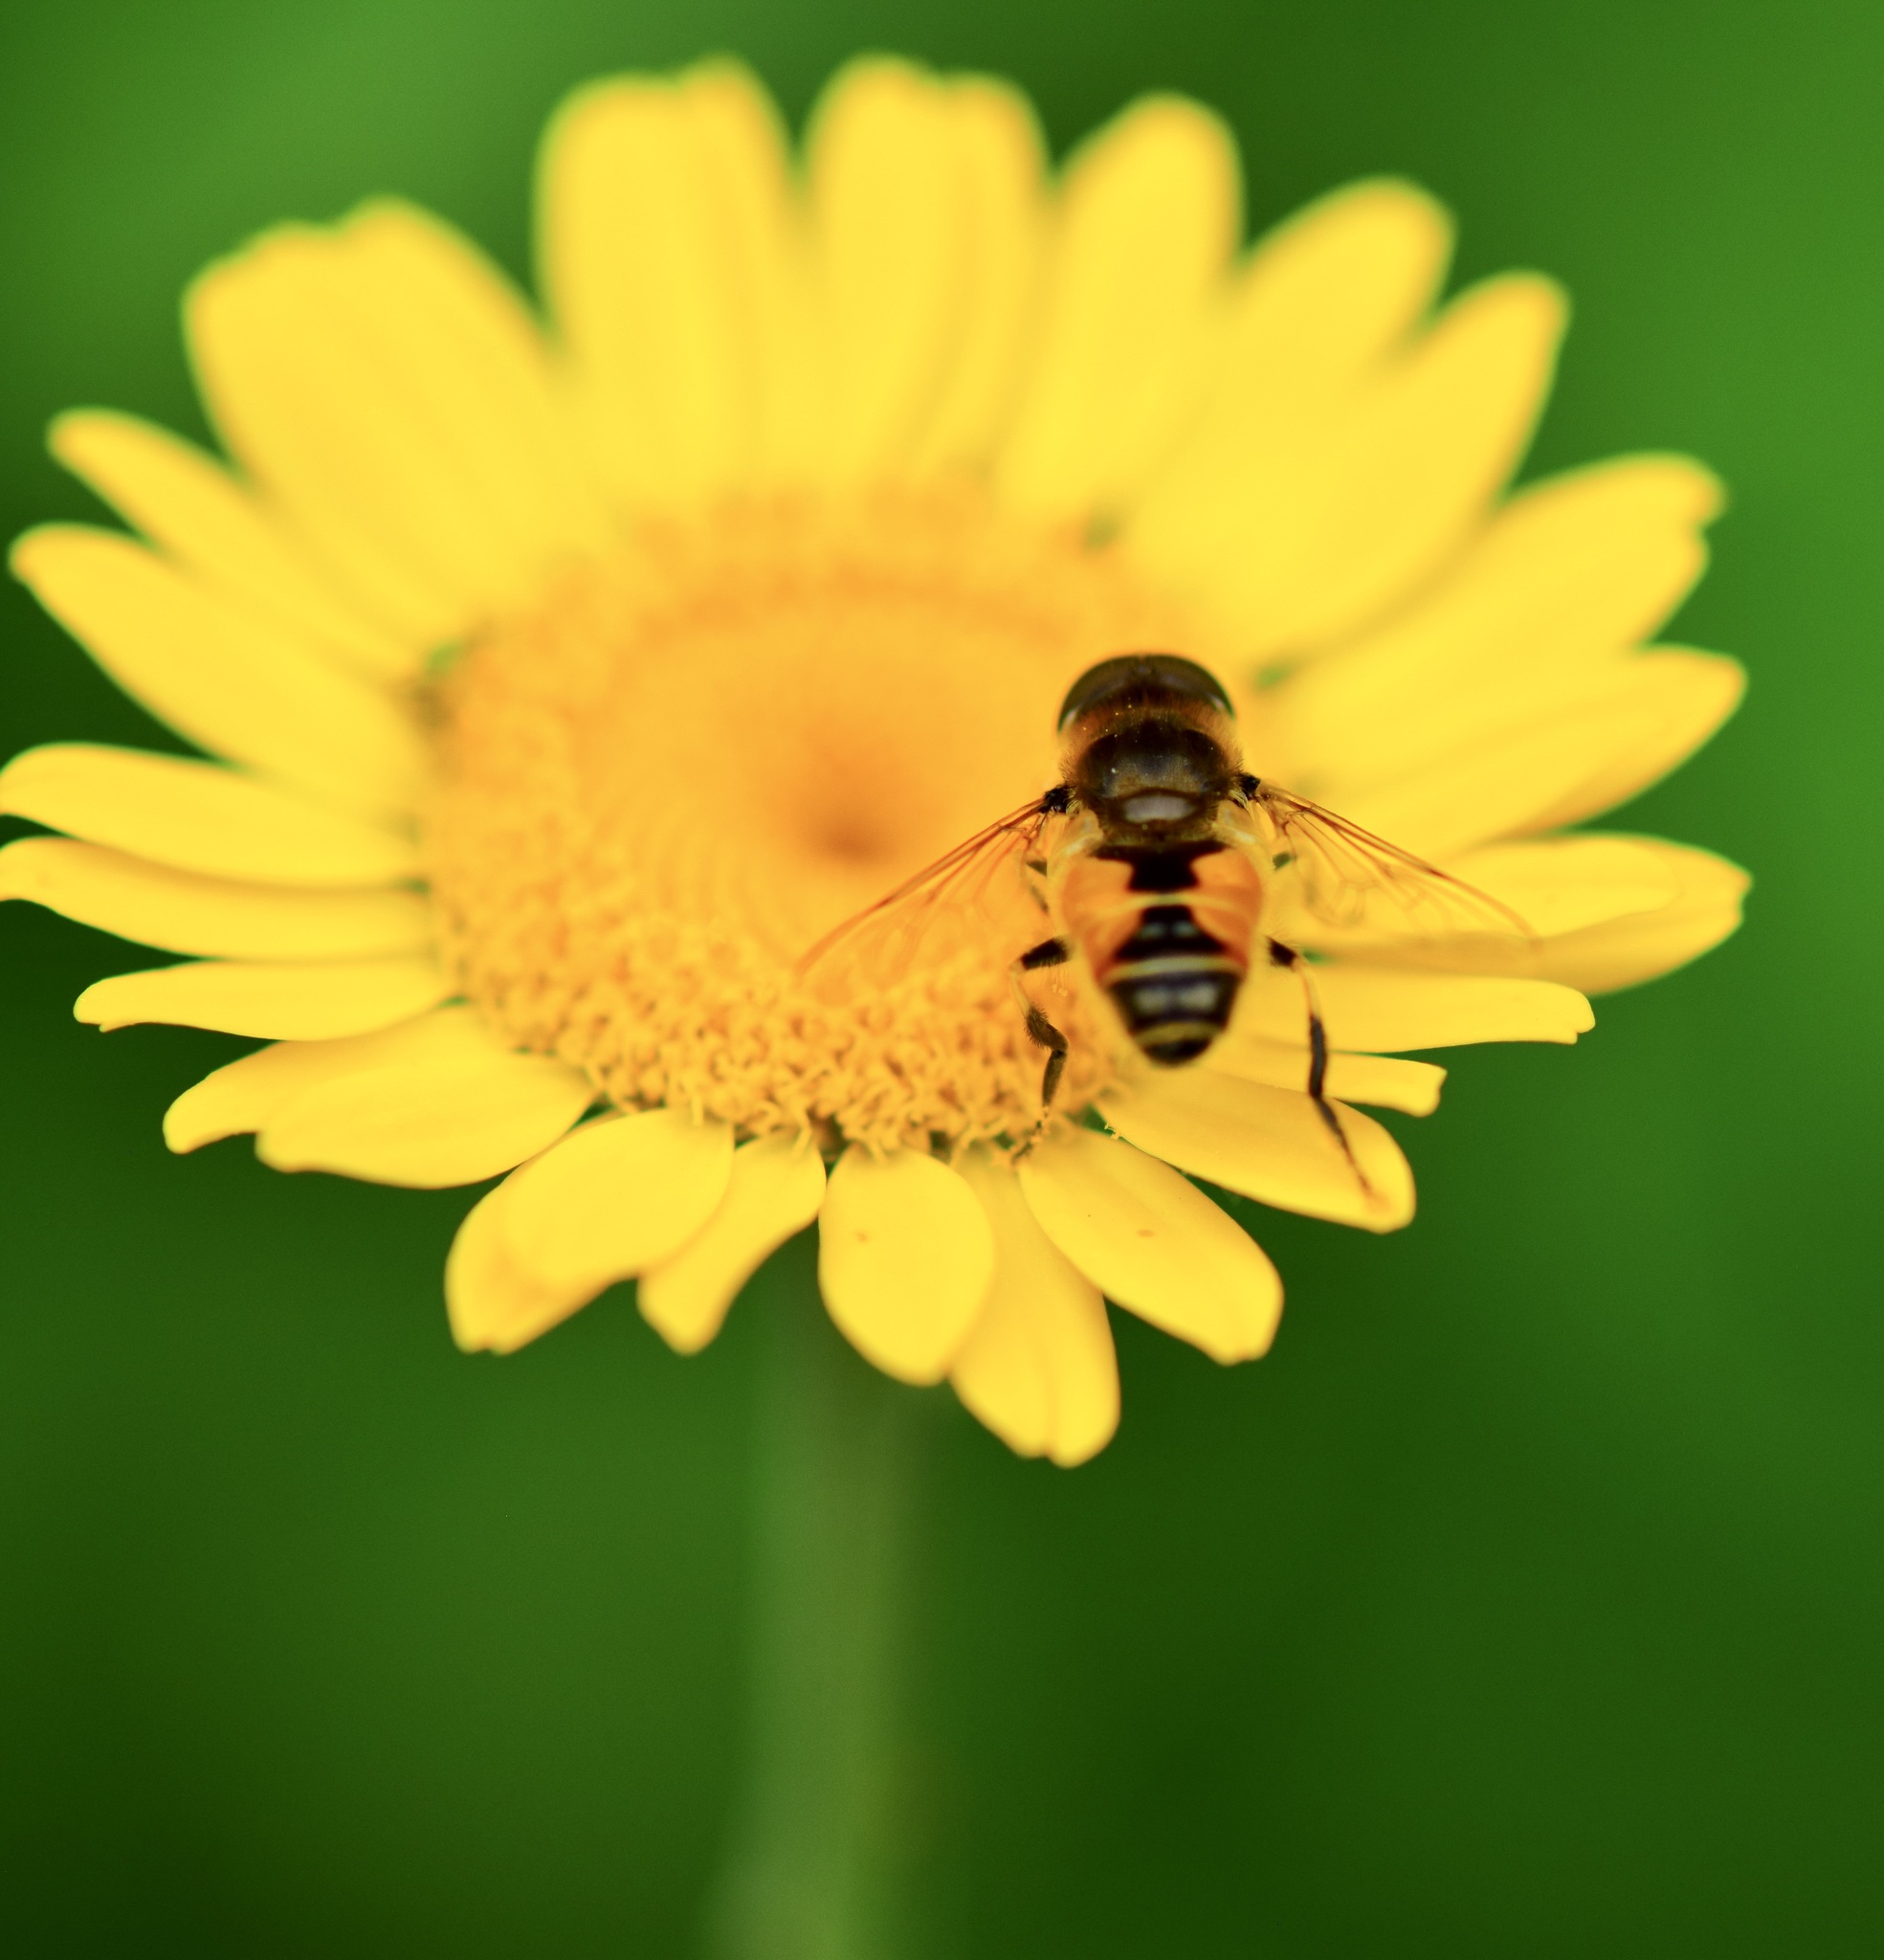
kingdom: Animalia
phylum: Arthropoda
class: Insecta
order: Diptera
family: Syrphidae
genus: Eristalis
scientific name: Eristalis arbustorum
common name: Hover fly
